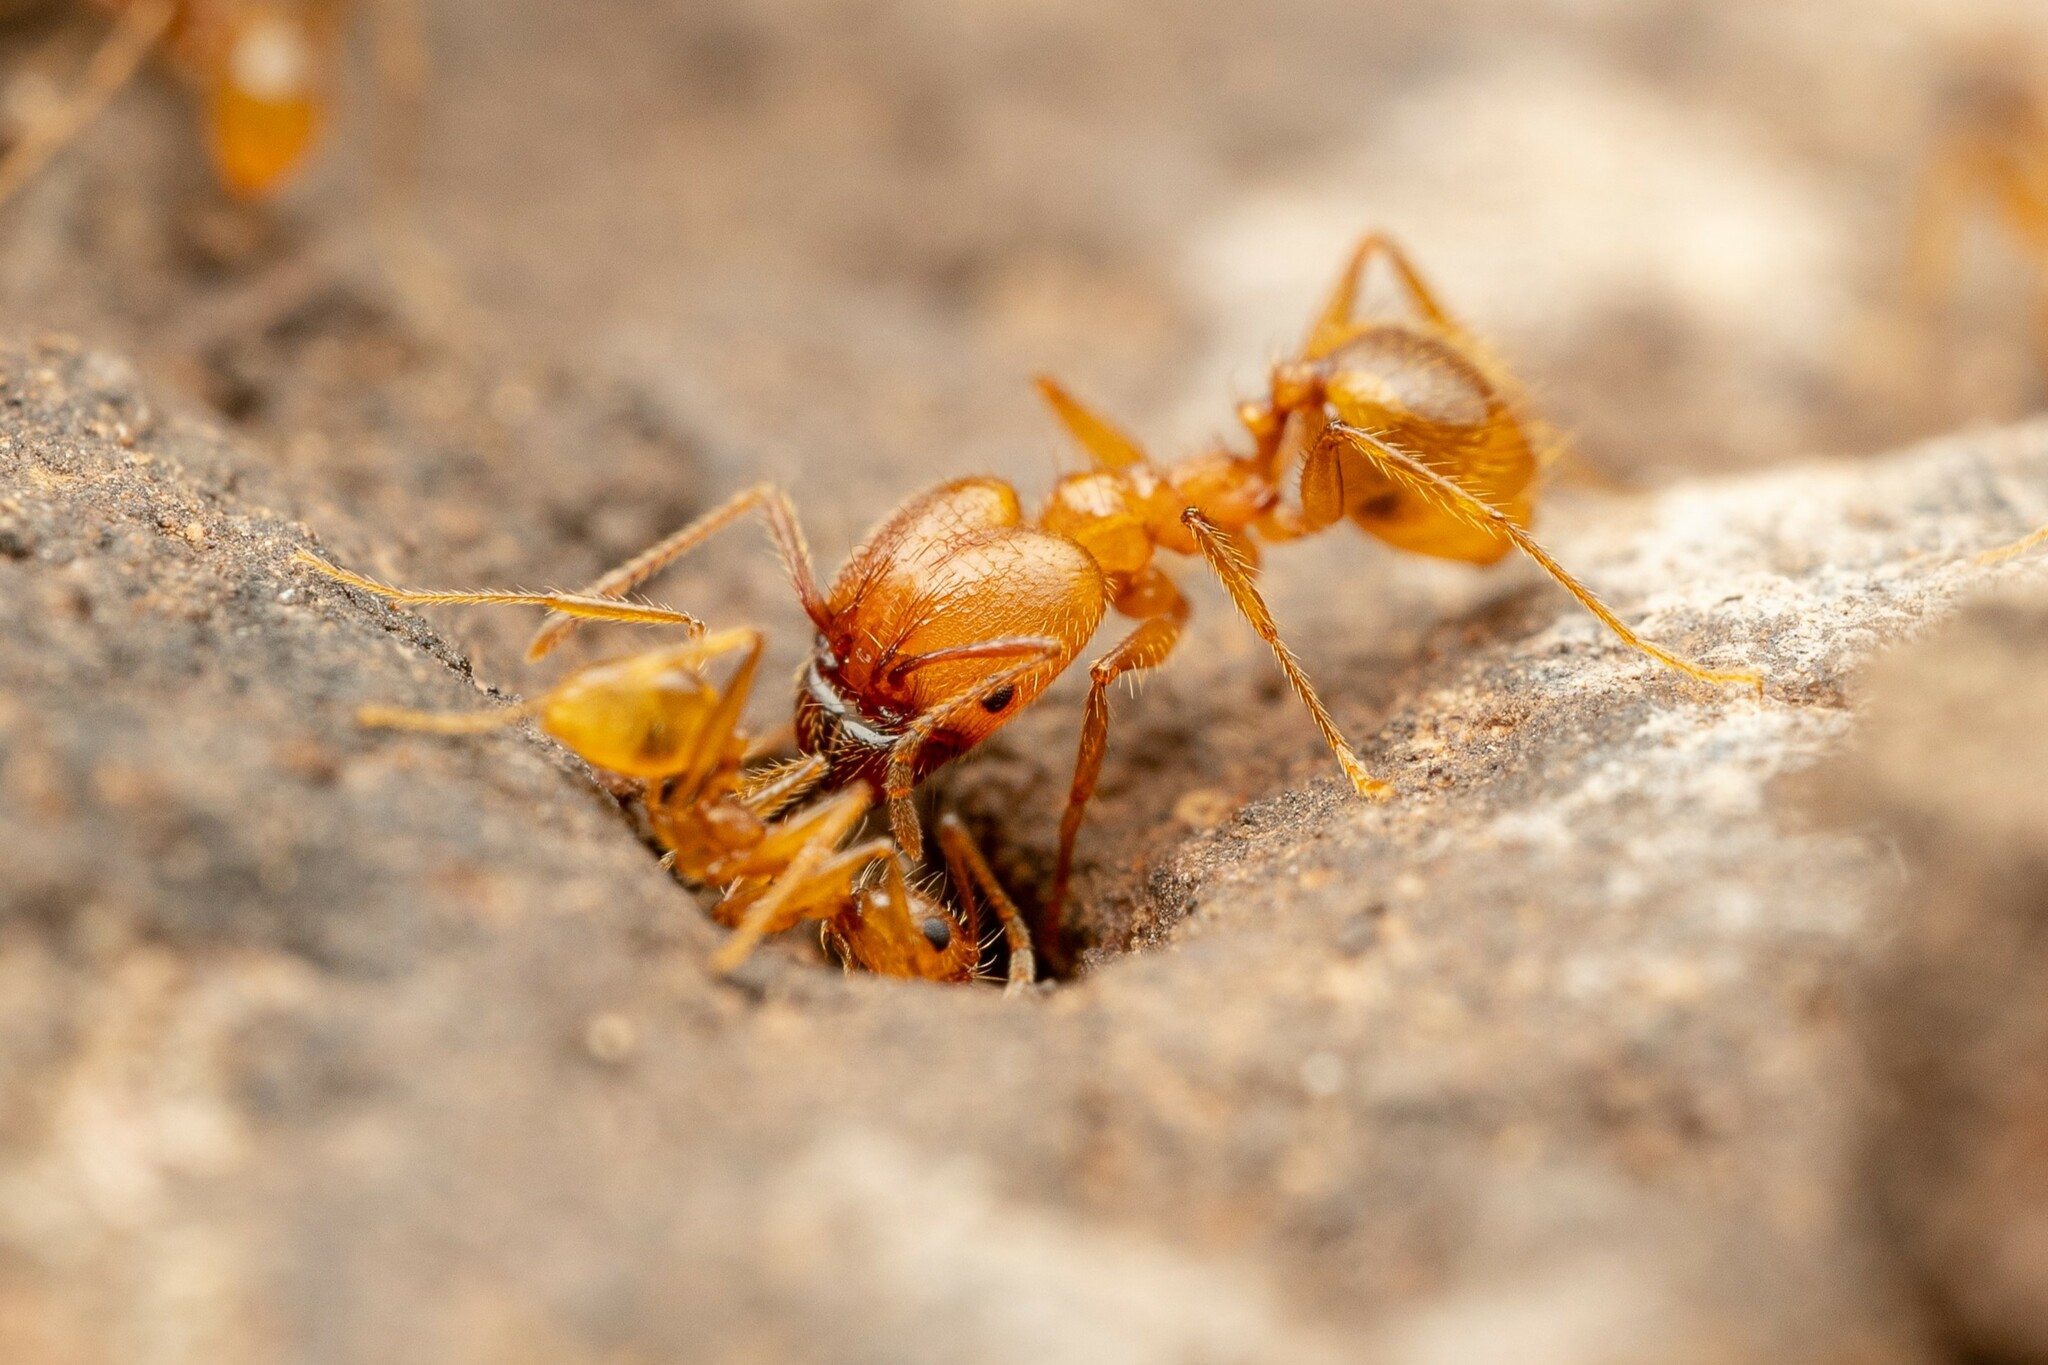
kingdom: Animalia
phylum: Arthropoda
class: Insecta
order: Hymenoptera
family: Formicidae
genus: Pheidole
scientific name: Pheidole hyatti
